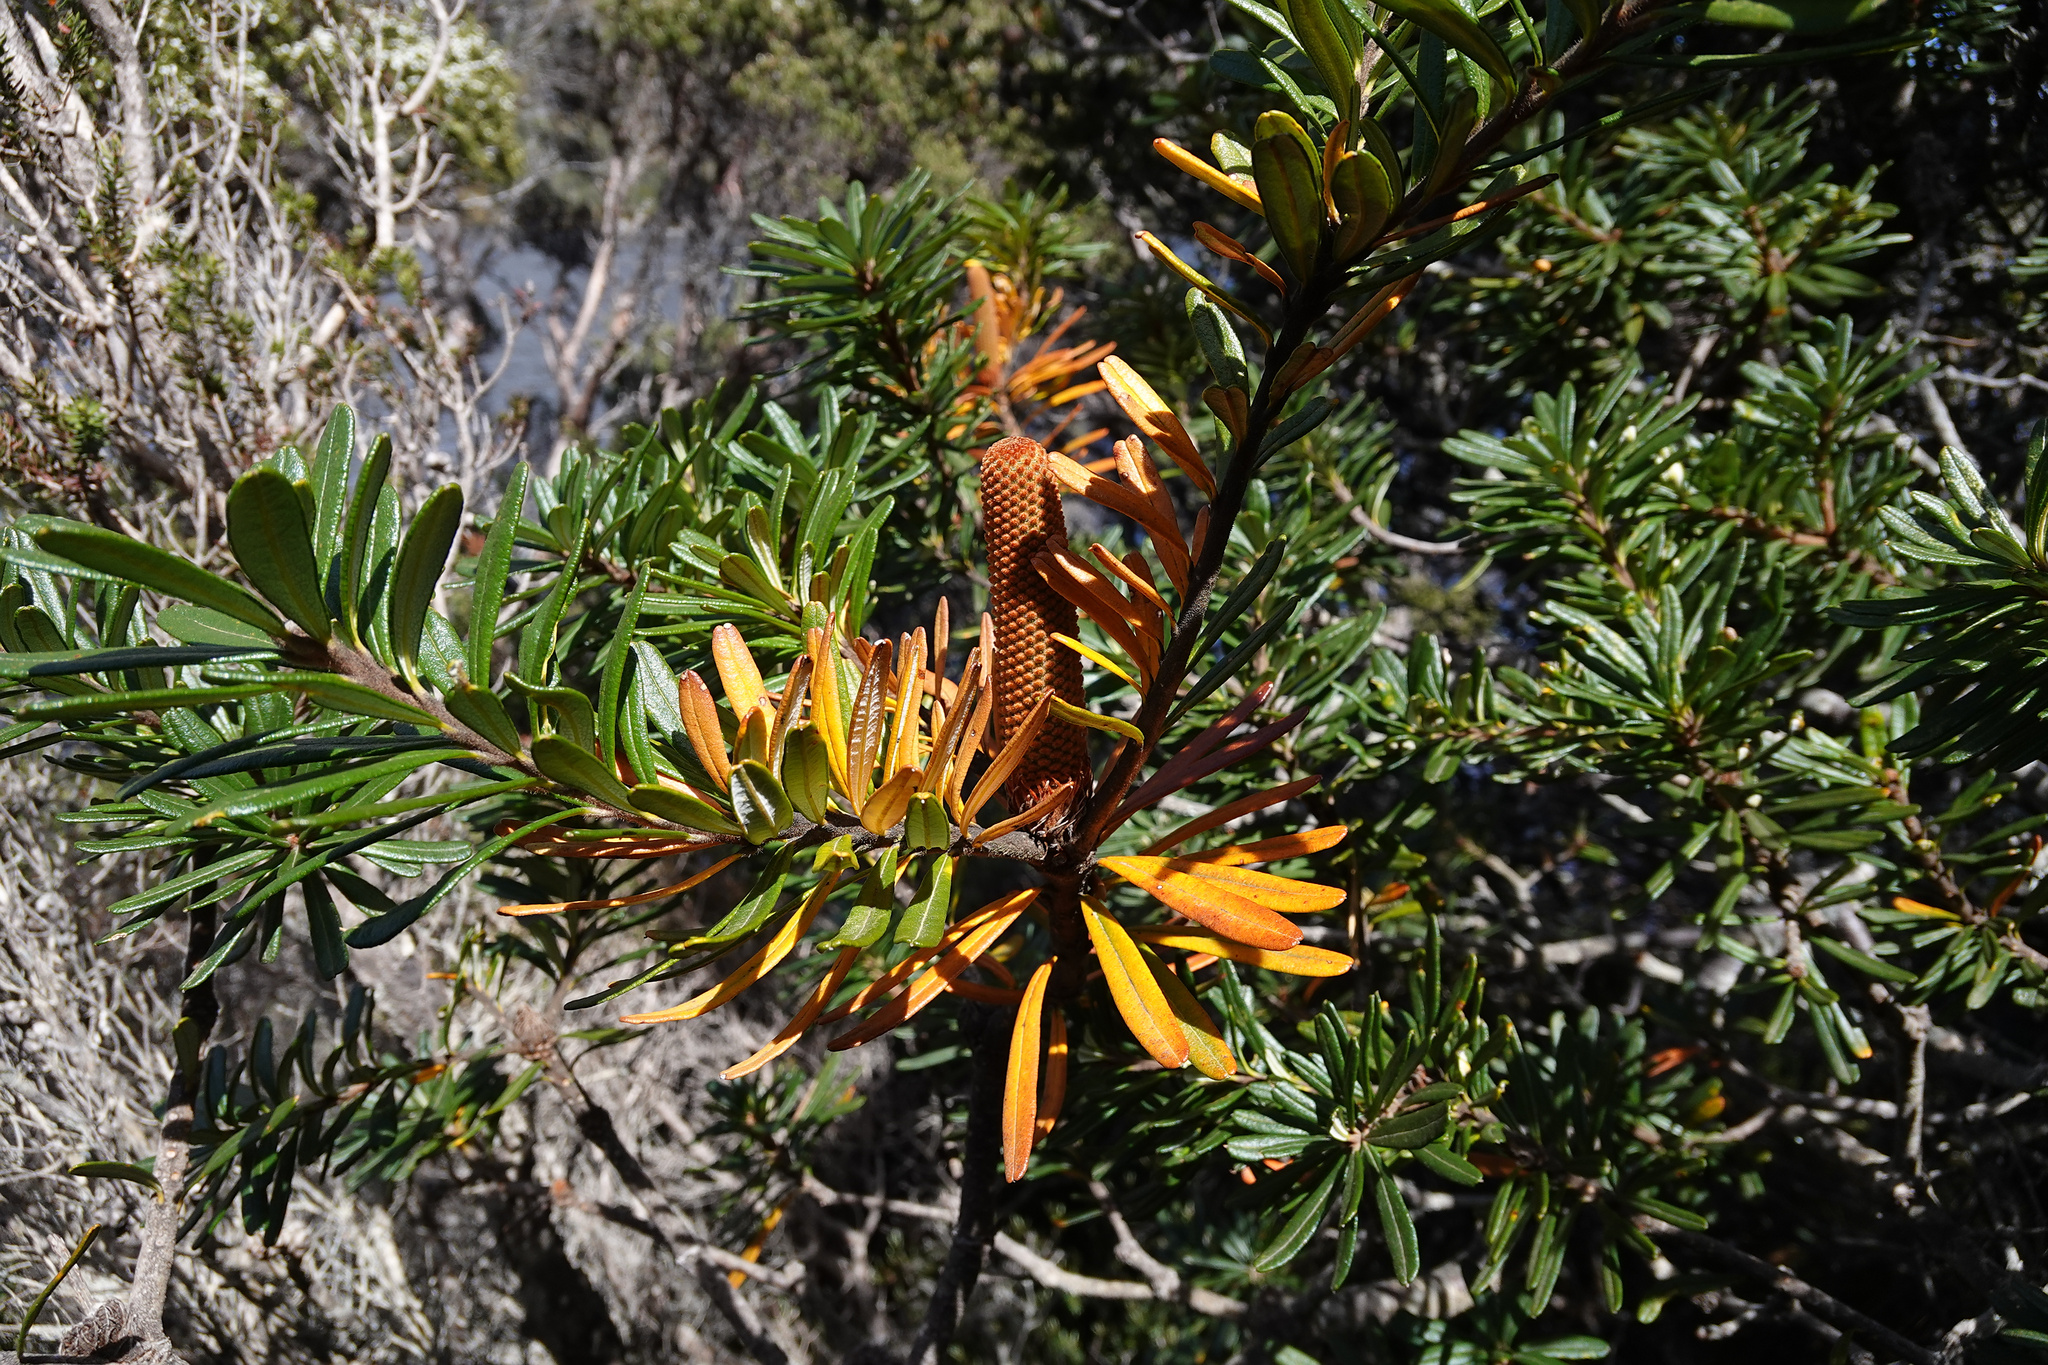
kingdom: Plantae
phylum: Tracheophyta
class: Magnoliopsida
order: Proteales
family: Proteaceae
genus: Banksia
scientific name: Banksia marginata
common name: Silver banksia
